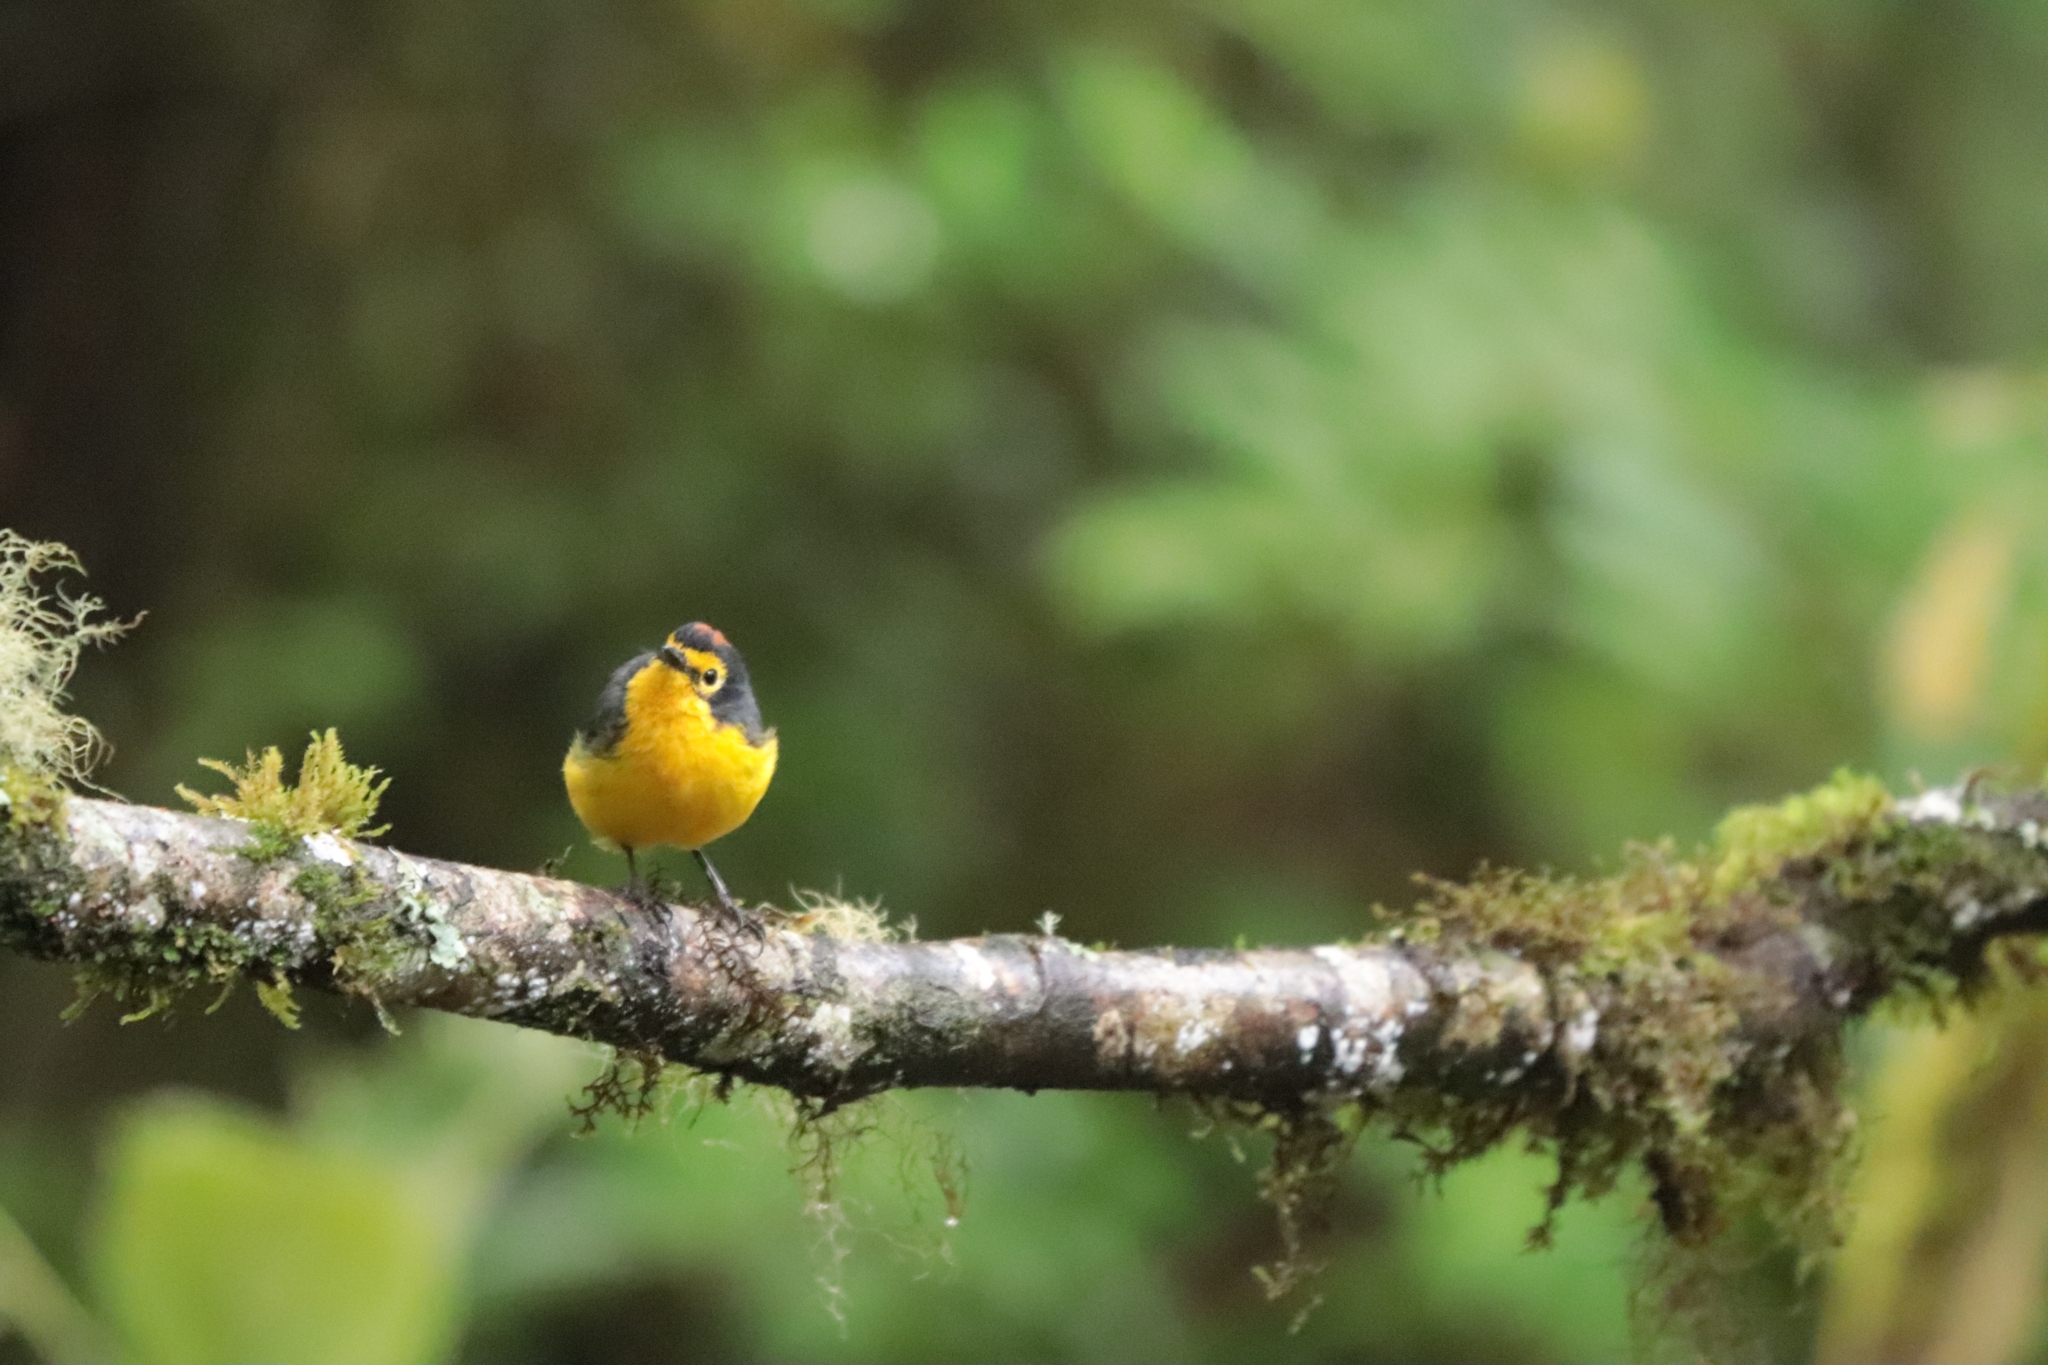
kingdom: Animalia
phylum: Chordata
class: Aves
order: Passeriformes
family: Parulidae
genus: Myioborus
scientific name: Myioborus melanocephalus
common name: Spectacled whitestart
